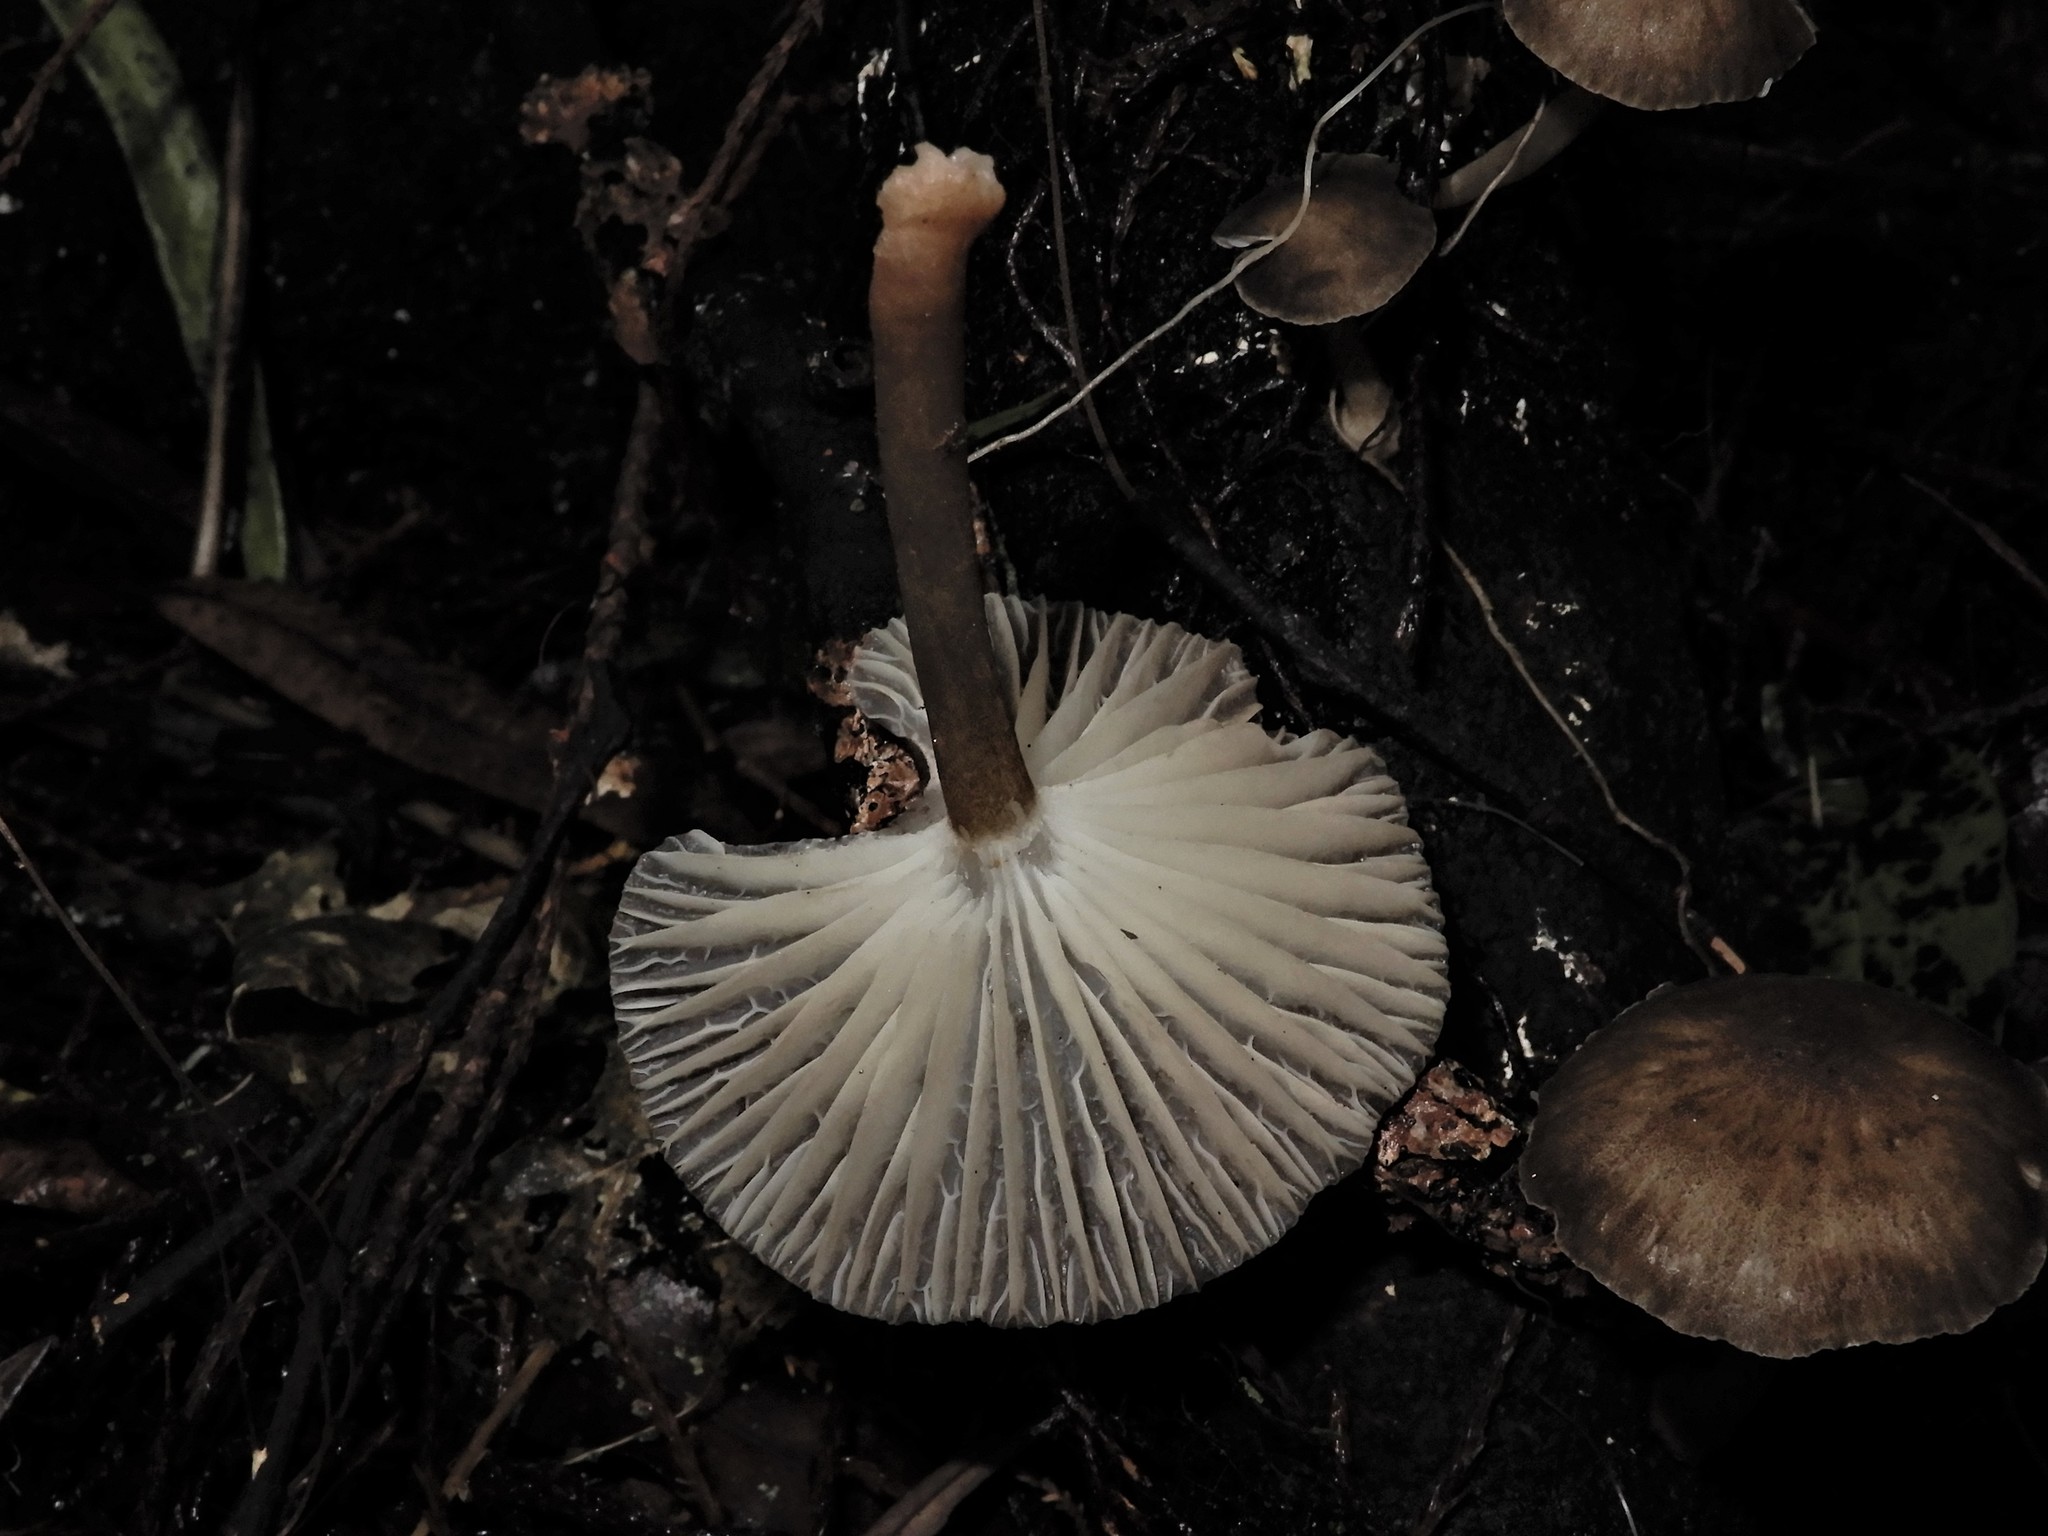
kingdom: Fungi
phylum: Basidiomycota
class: Agaricomycetes
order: Agaricales
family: Marasmiaceae
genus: Gerronema
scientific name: Gerronema
